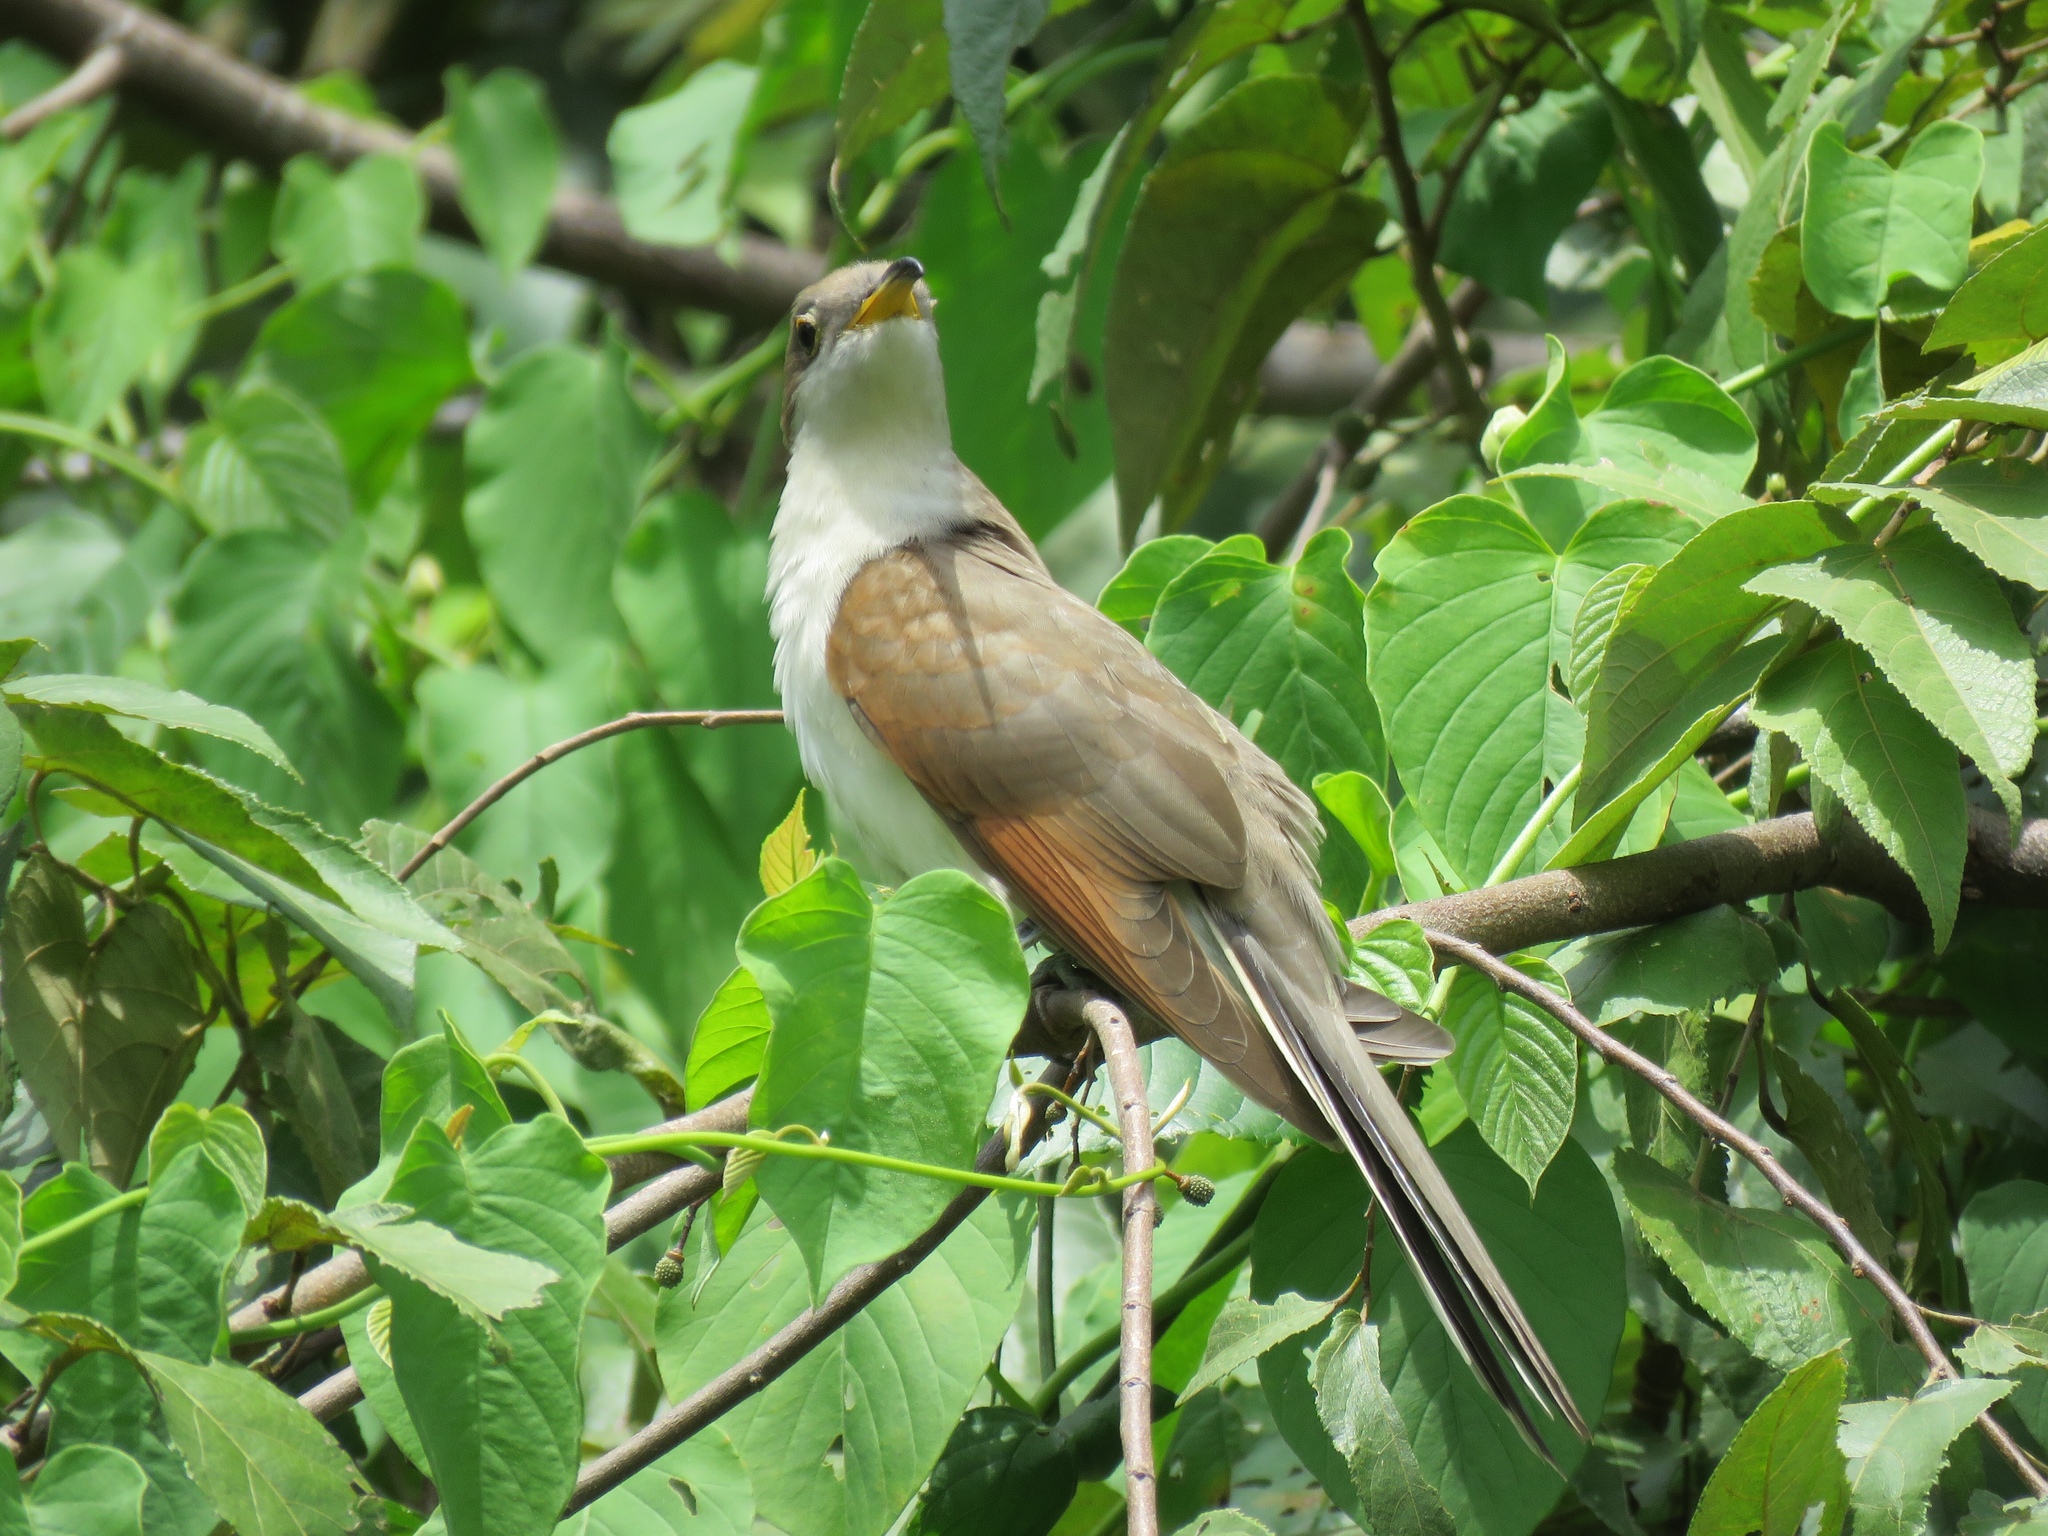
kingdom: Animalia
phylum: Chordata
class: Aves
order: Cuculiformes
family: Cuculidae
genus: Coccyzus
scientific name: Coccyzus americanus
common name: Yellow-billed cuckoo
